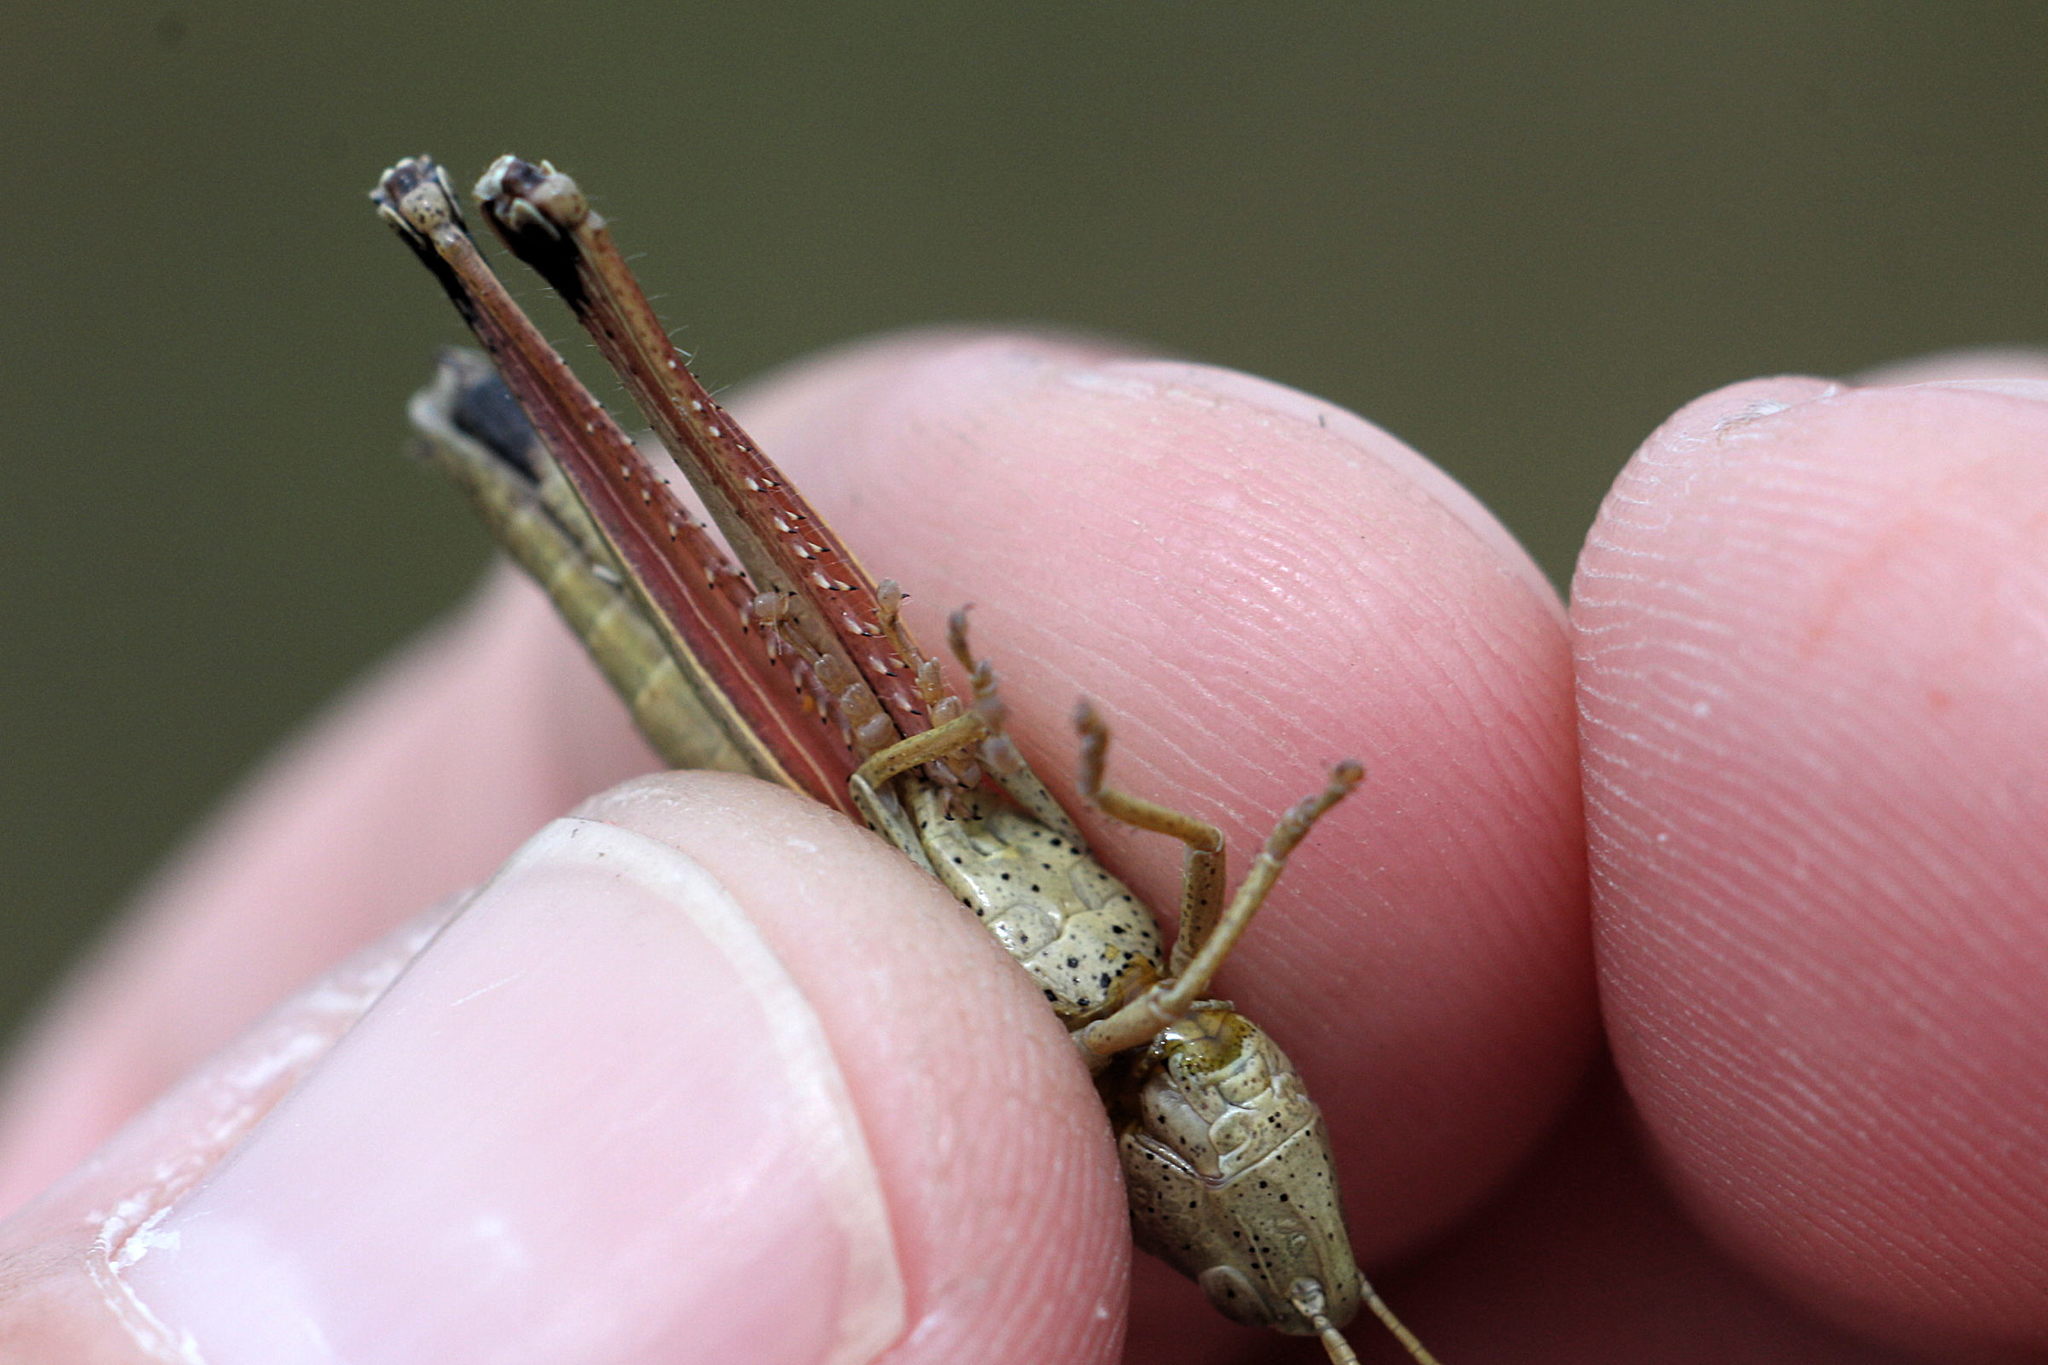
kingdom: Animalia
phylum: Arthropoda
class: Insecta
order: Orthoptera
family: Acrididae
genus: Chrysochraon
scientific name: Chrysochraon dispar
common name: Large gold grasshopper
